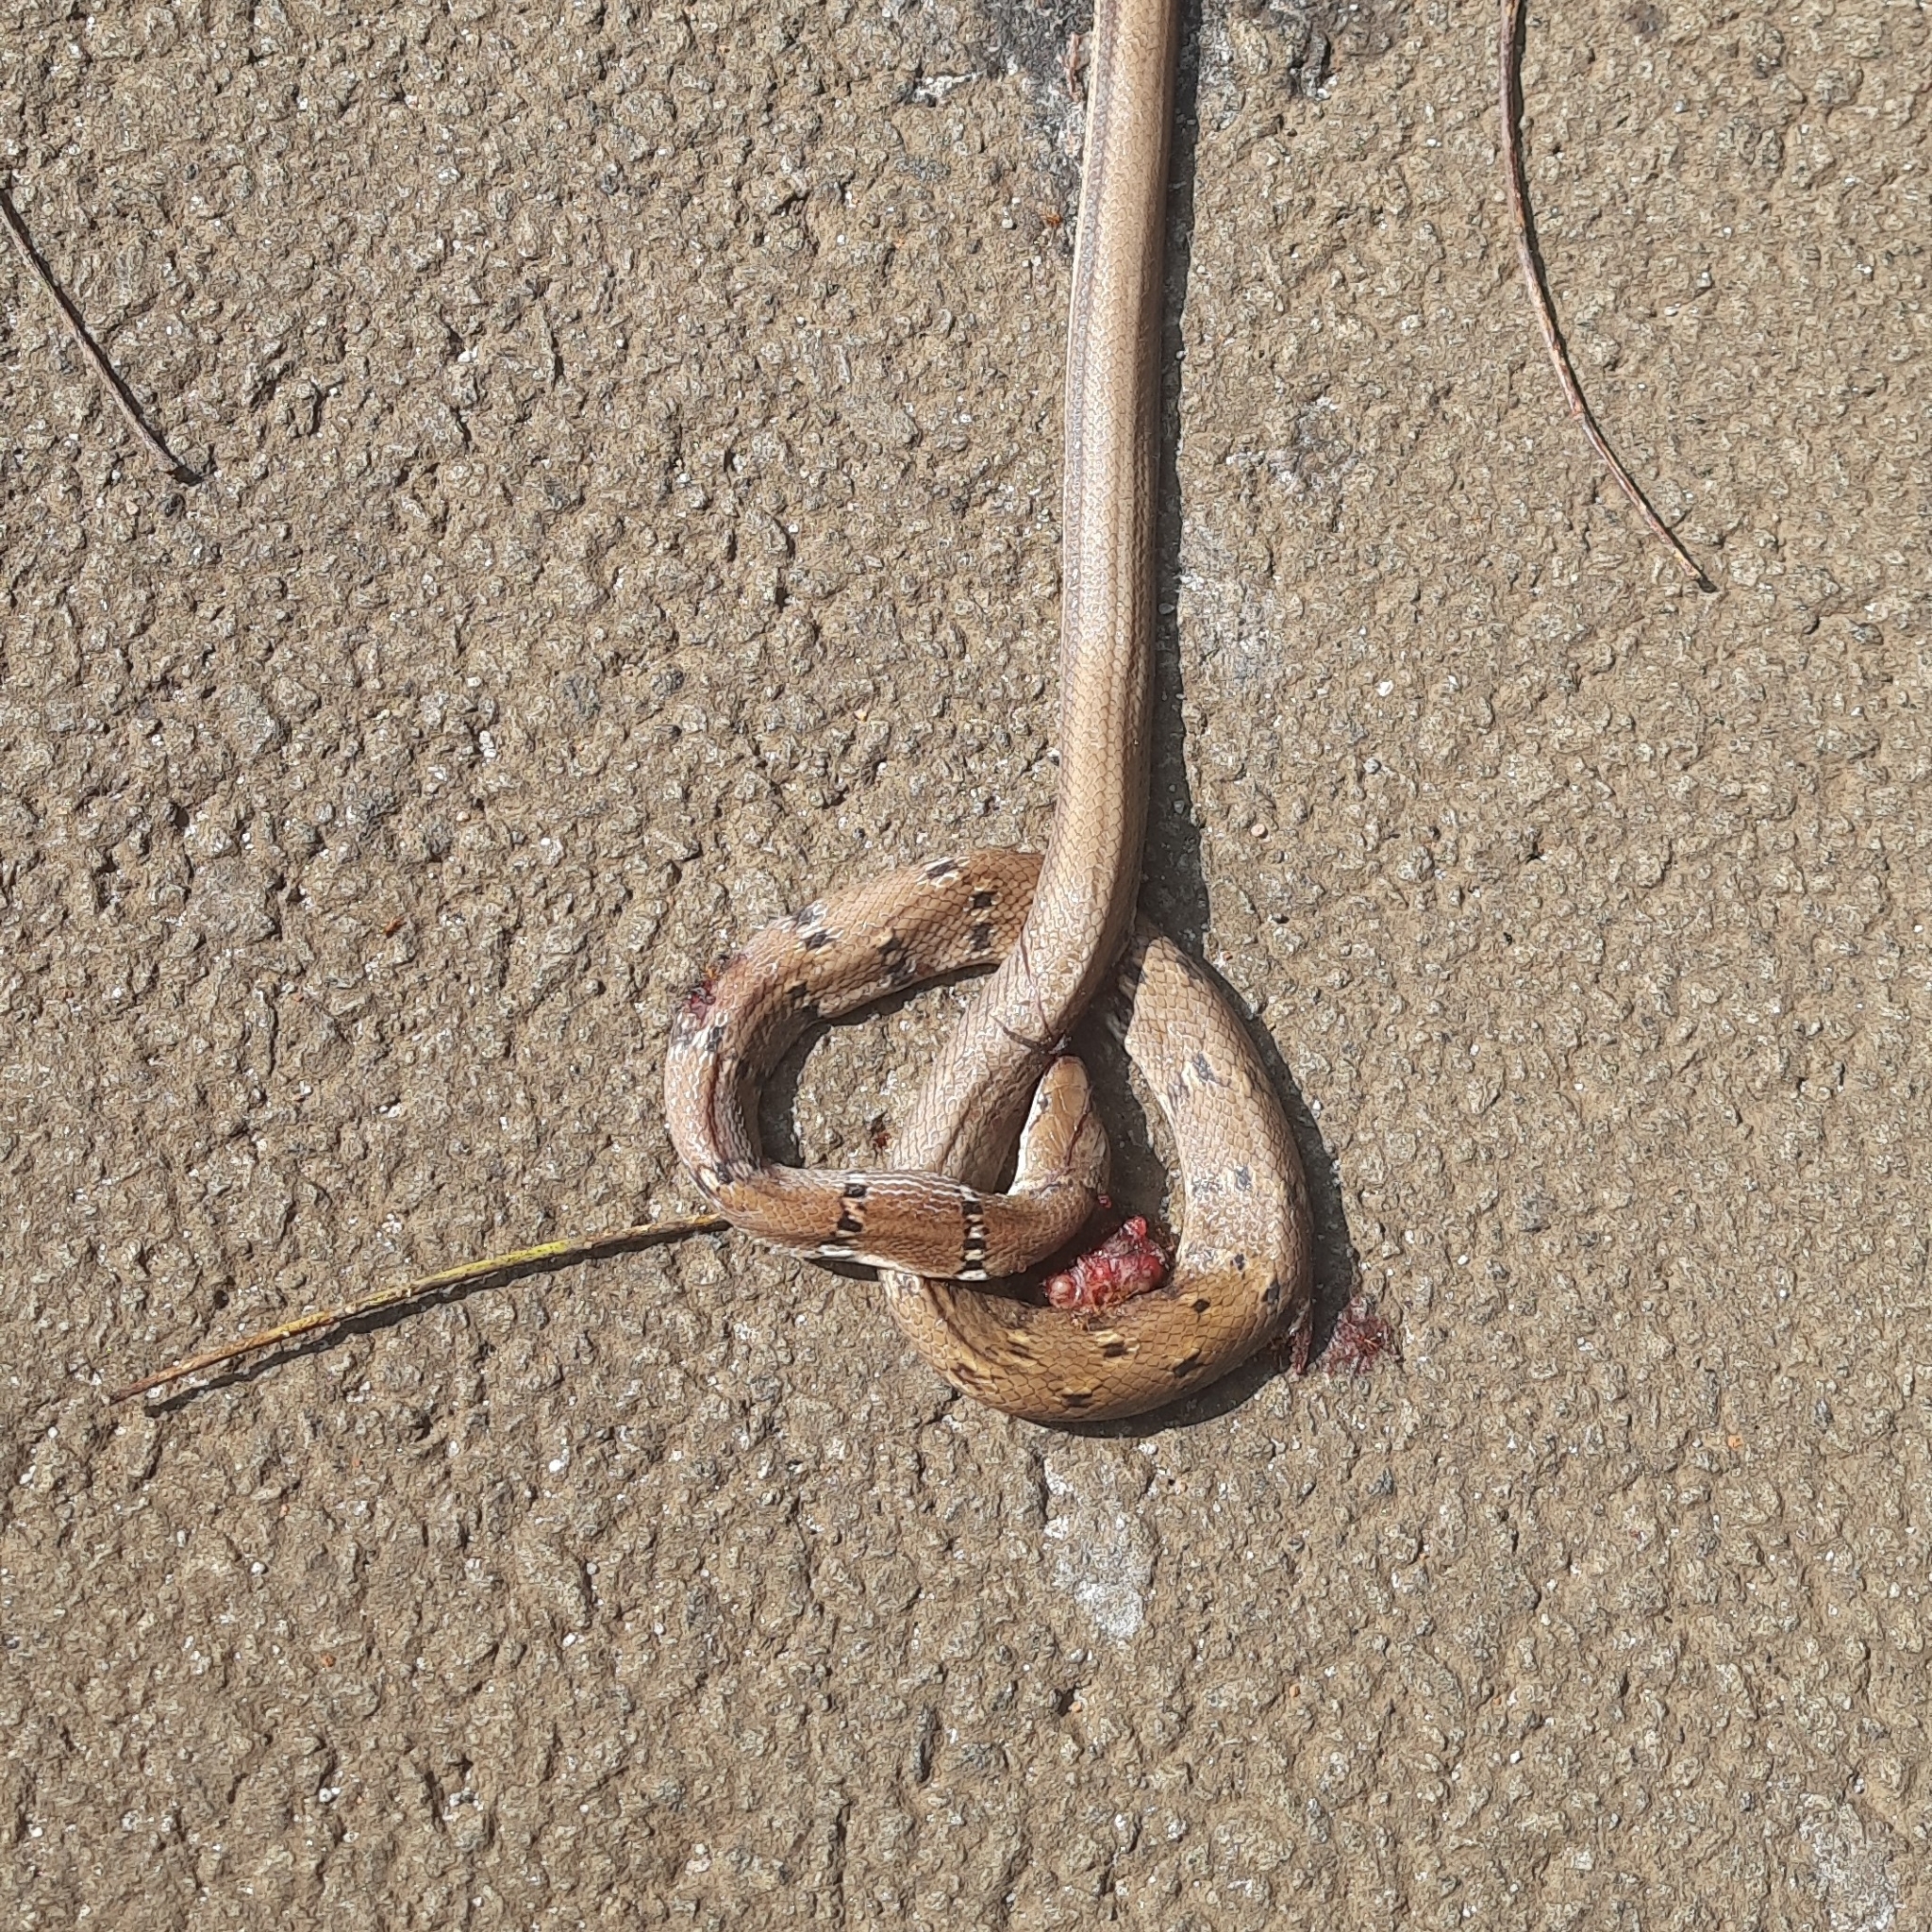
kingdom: Animalia
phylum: Chordata
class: Squamata
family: Colubridae
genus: Coelognathus
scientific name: Coelognathus helena
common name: Trinket snake
